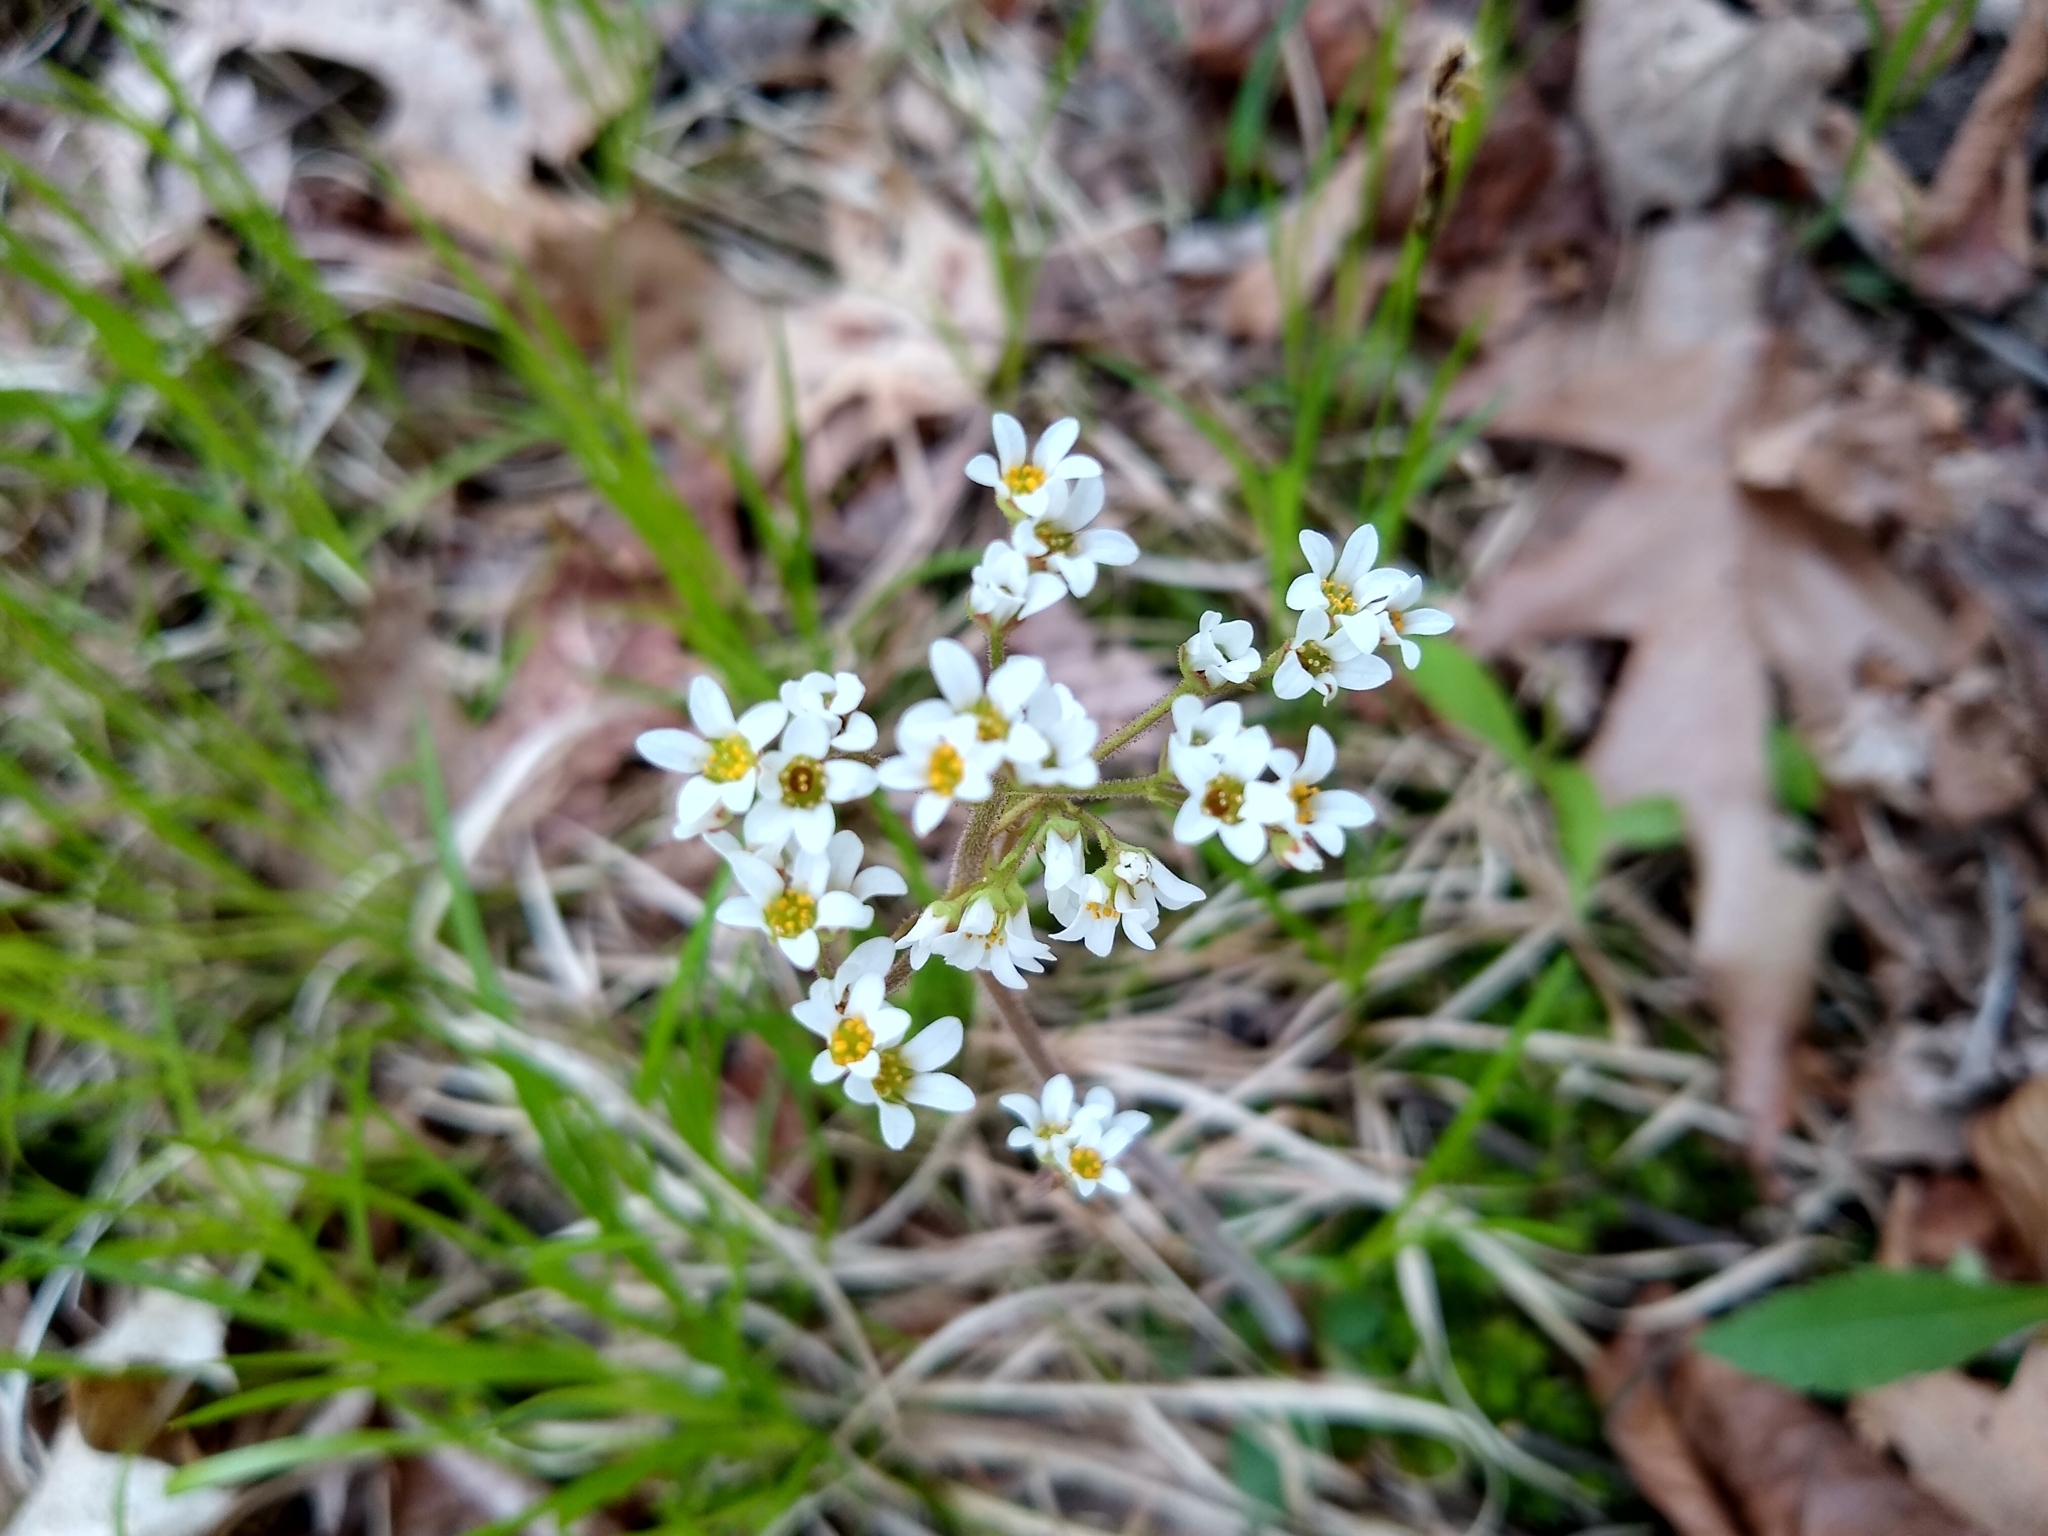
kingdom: Plantae
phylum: Tracheophyta
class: Magnoliopsida
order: Saxifragales
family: Saxifragaceae
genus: Micranthes
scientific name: Micranthes virginiensis
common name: Early saxifrage
